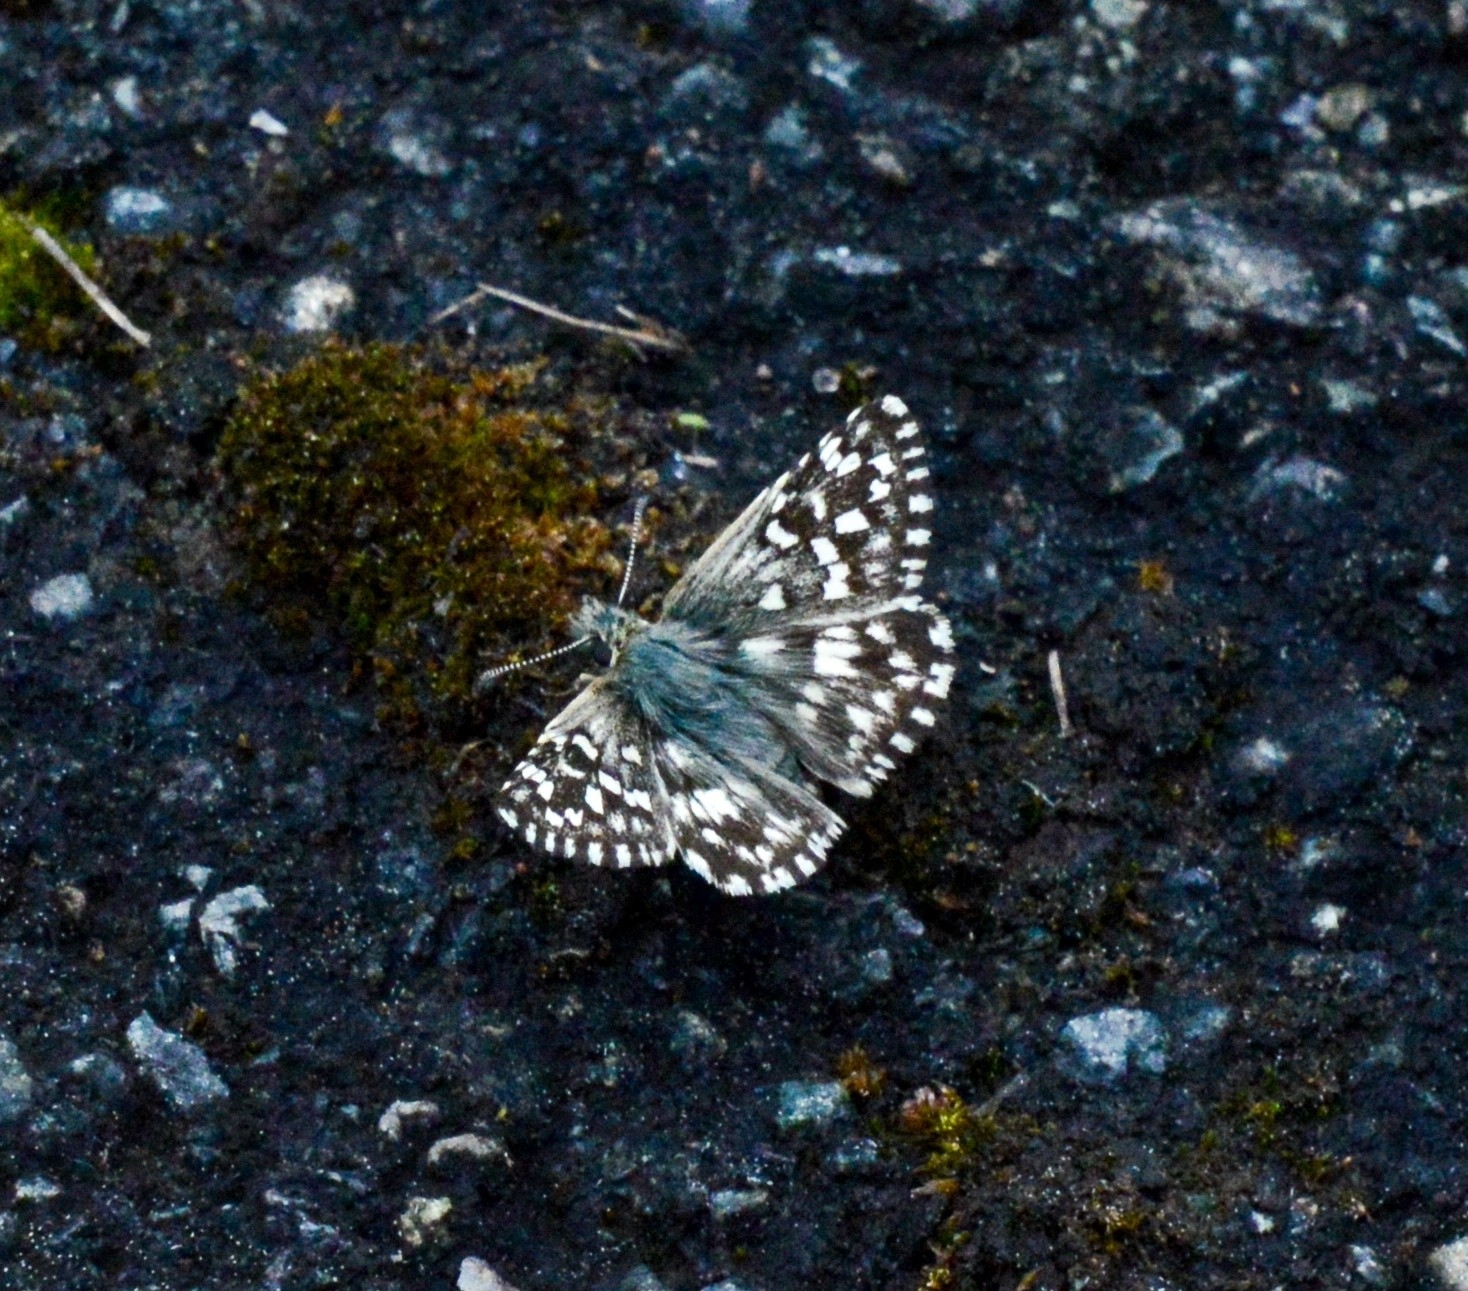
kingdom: Animalia
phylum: Arthropoda
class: Insecta
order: Lepidoptera
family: Hesperiidae
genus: Pyrgus
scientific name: Pyrgus malvae
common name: Grizzled skipper
